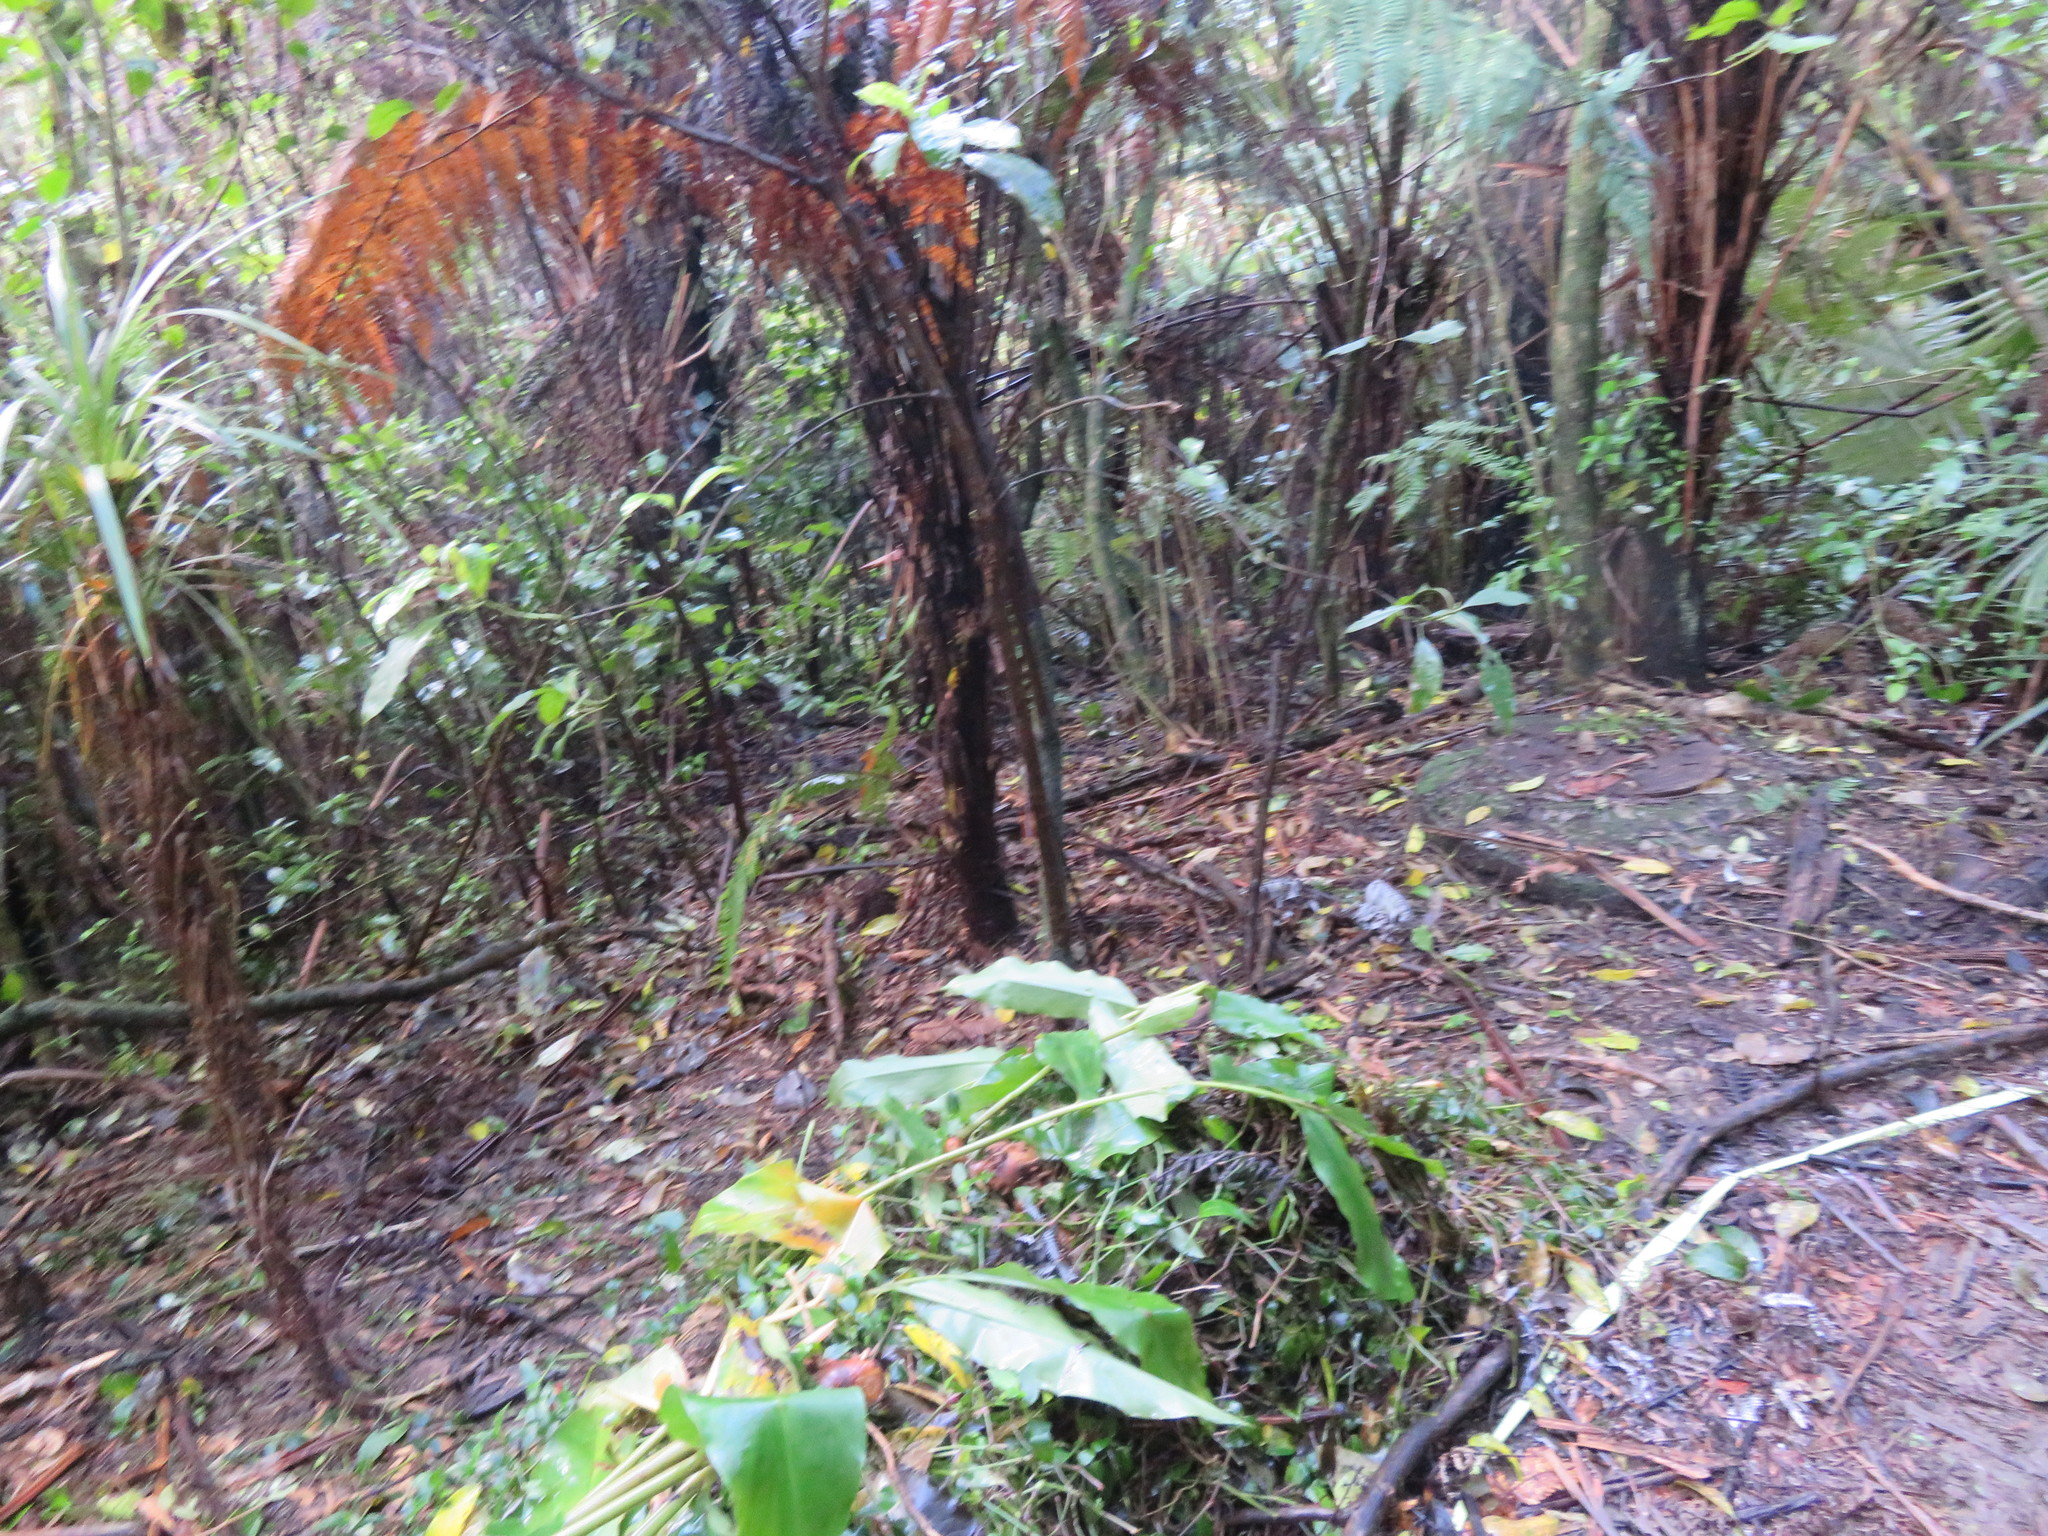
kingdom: Plantae
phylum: Tracheophyta
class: Liliopsida
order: Asparagales
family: Asparagaceae
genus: Cordyline
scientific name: Cordyline australis
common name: Cabbage-palm
